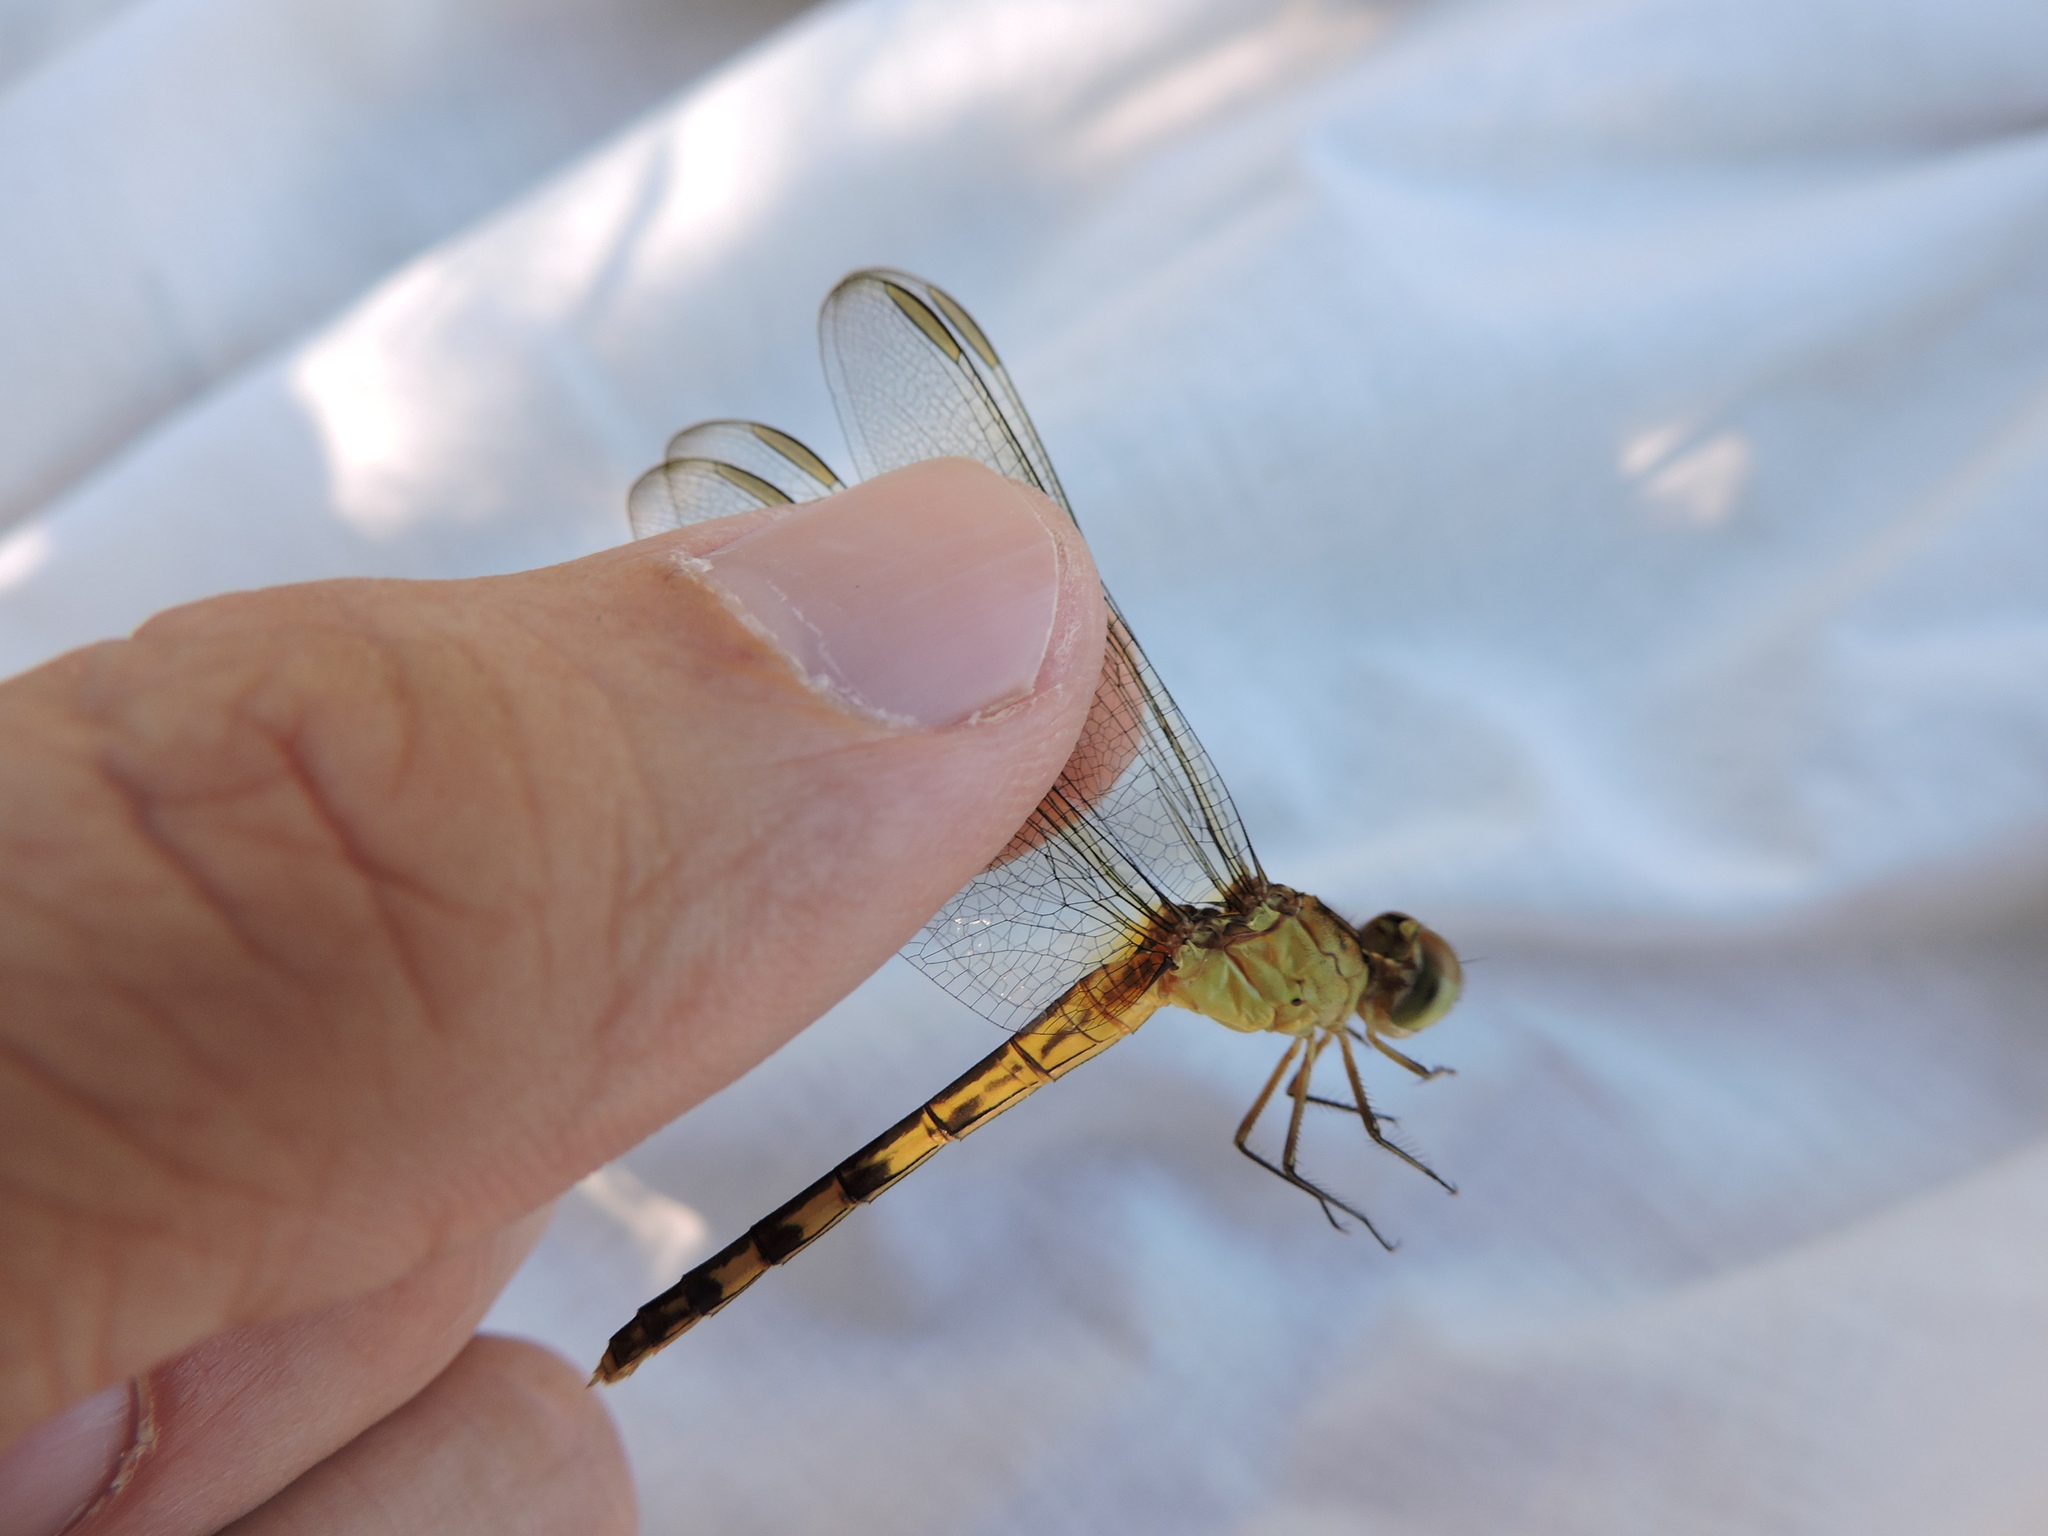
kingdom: Animalia
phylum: Arthropoda
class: Insecta
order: Odonata
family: Libellulidae
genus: Erythrodiplax
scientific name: Erythrodiplax umbrata
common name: Band-winged dragonlet
